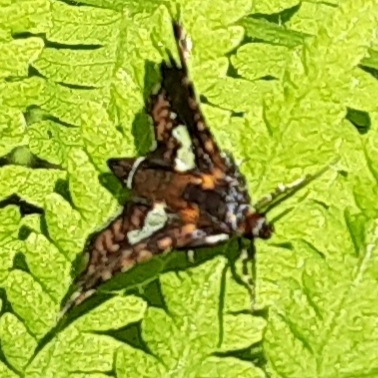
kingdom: Animalia
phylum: Arthropoda
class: Insecta
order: Lepidoptera
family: Thyrididae
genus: Thyris
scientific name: Thyris maculata
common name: Spotted thyris moth
